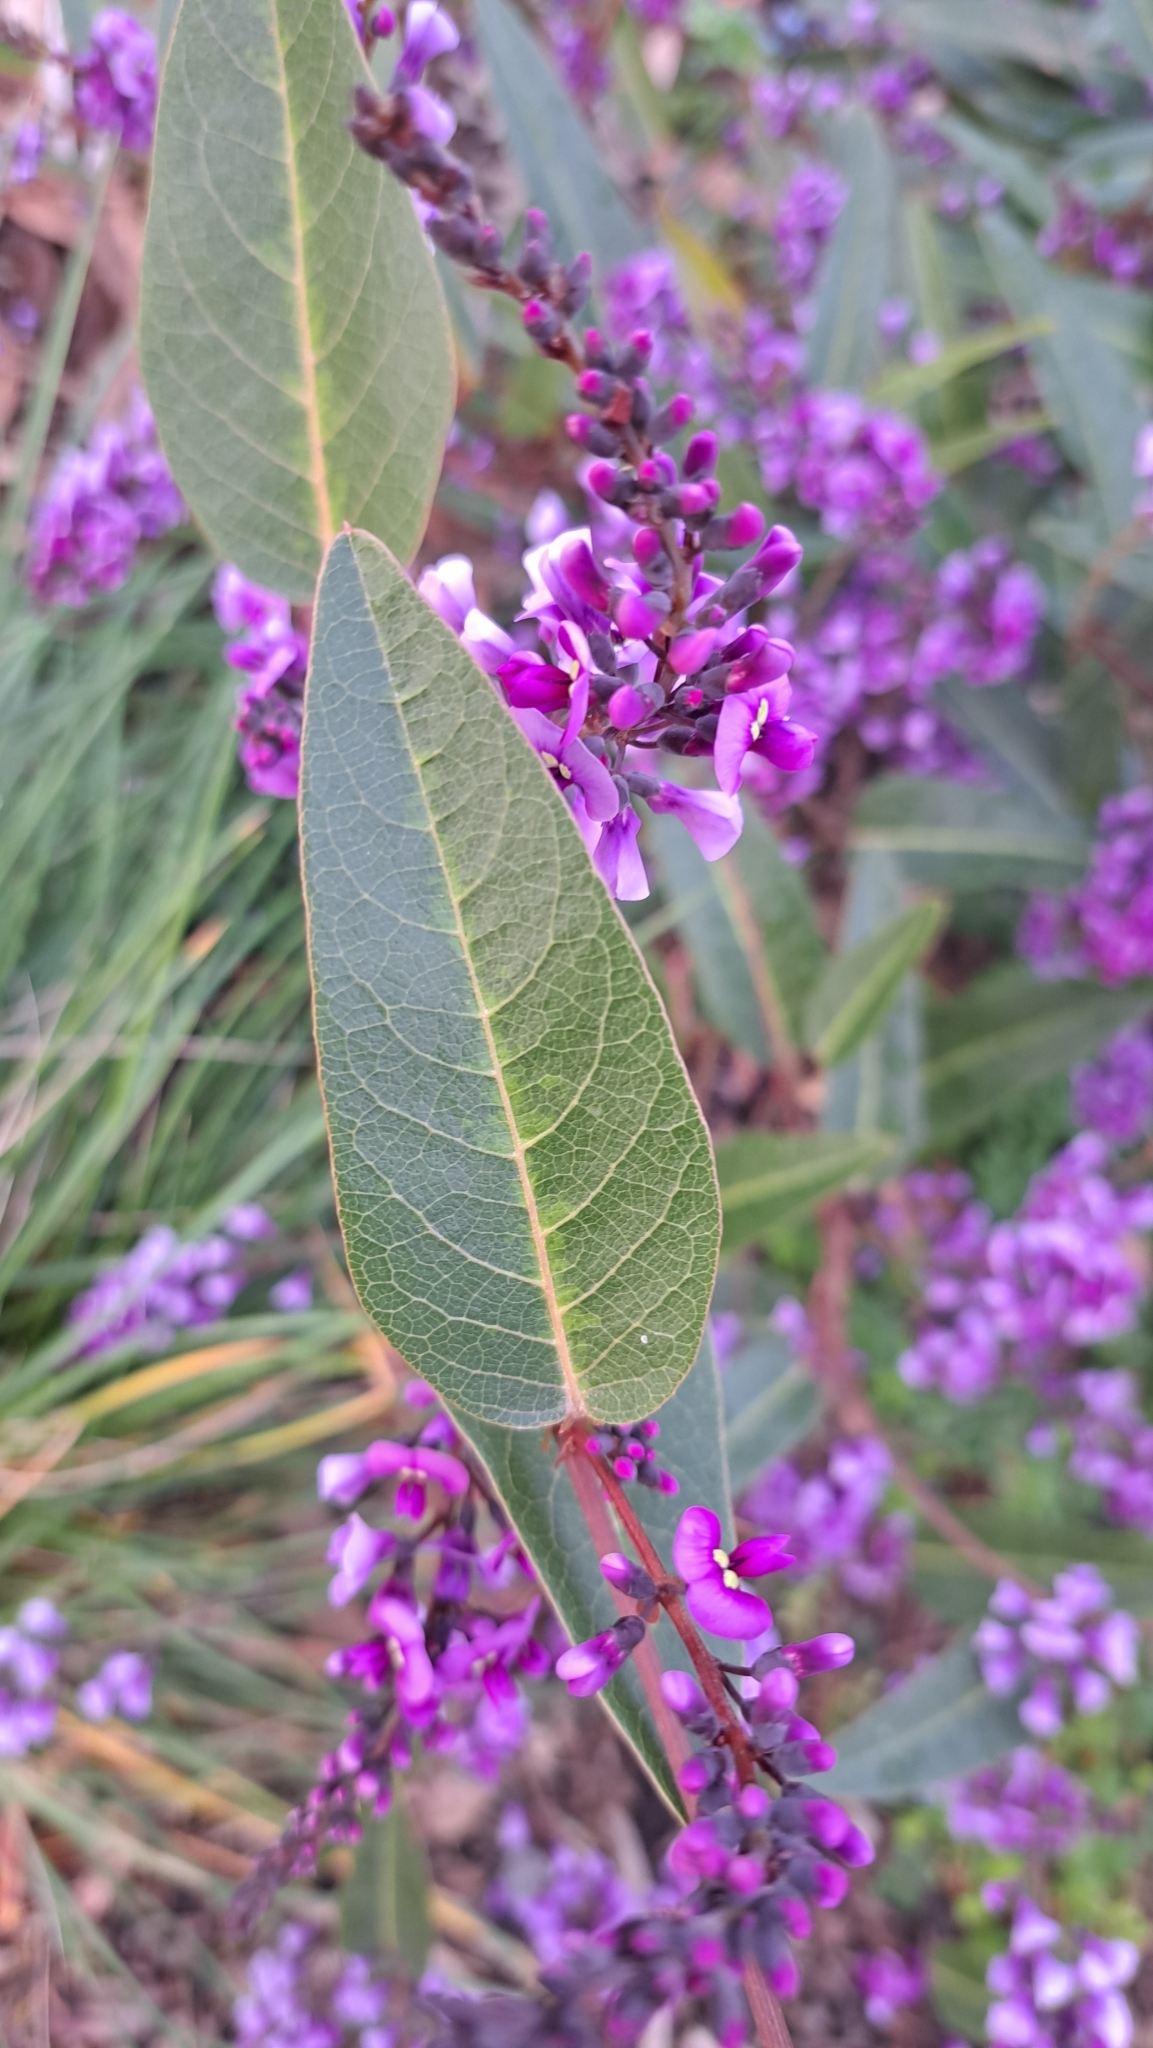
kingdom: Plantae
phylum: Tracheophyta
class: Magnoliopsida
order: Fabales
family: Fabaceae
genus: Hardenbergia
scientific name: Hardenbergia violacea
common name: Coral-pea
